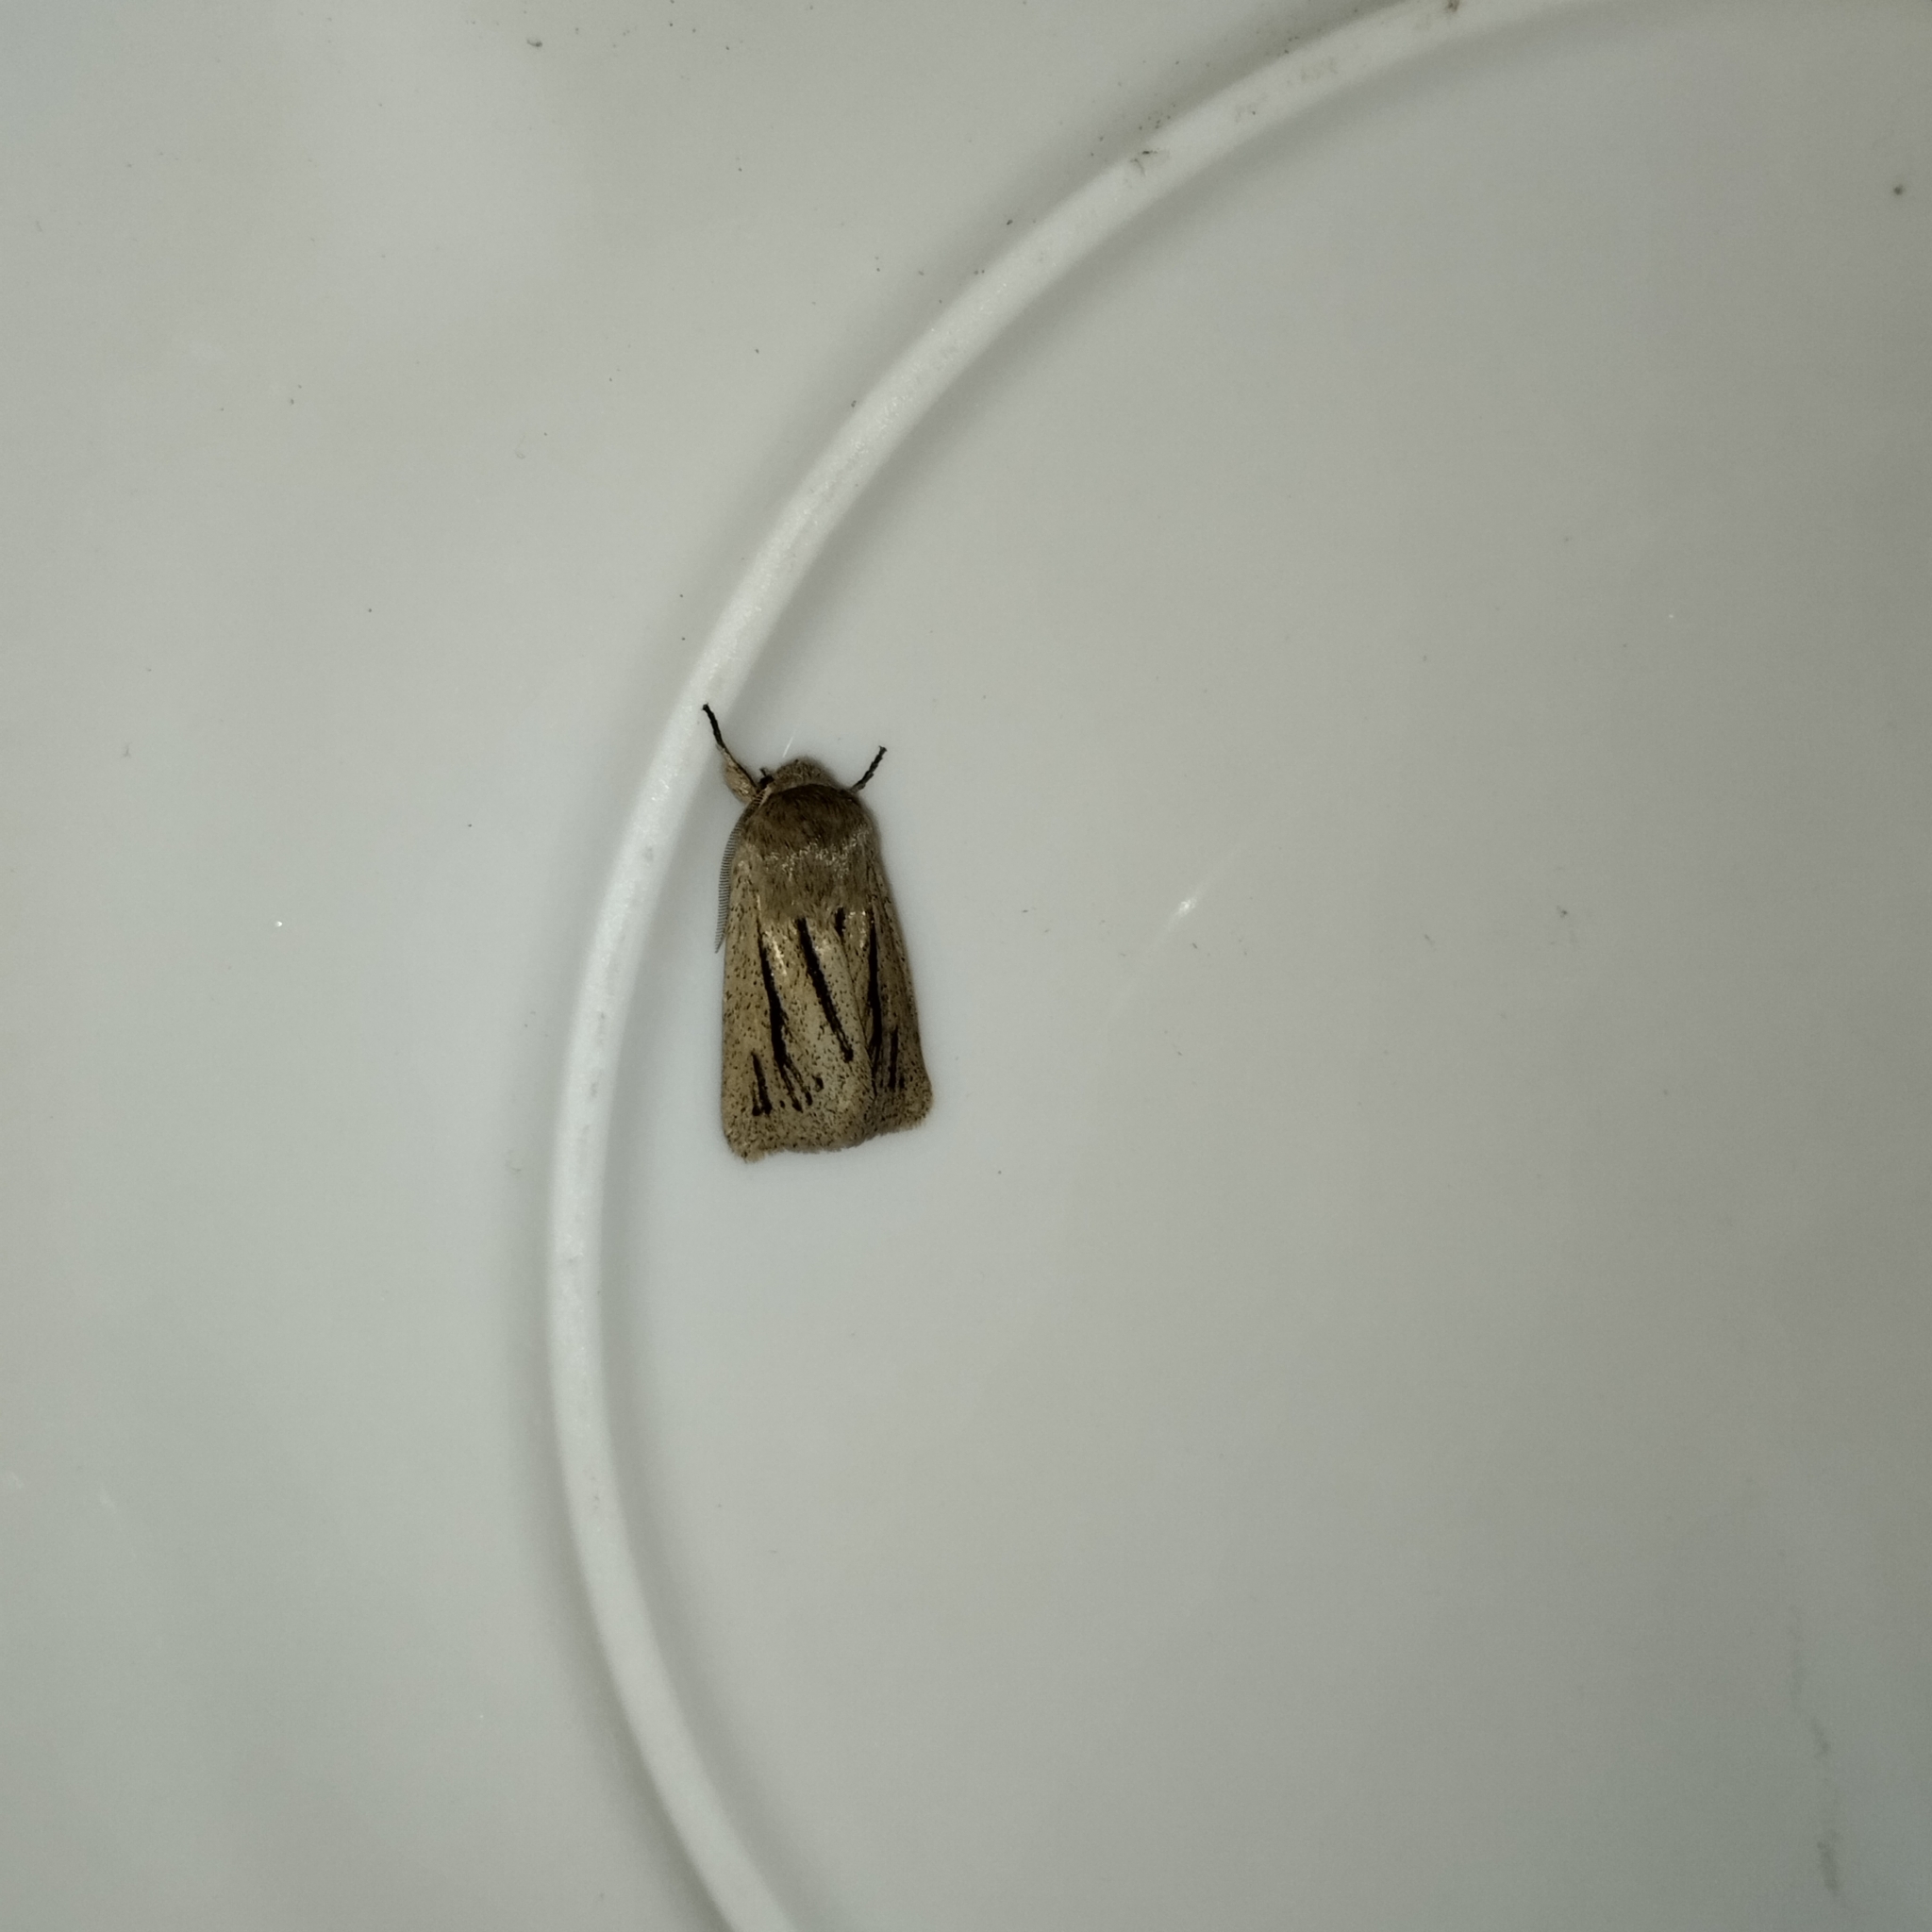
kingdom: Animalia
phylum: Arthropoda
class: Insecta
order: Lepidoptera
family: Noctuidae
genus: Tripseuxoa
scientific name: Tripseuxoa strigata
